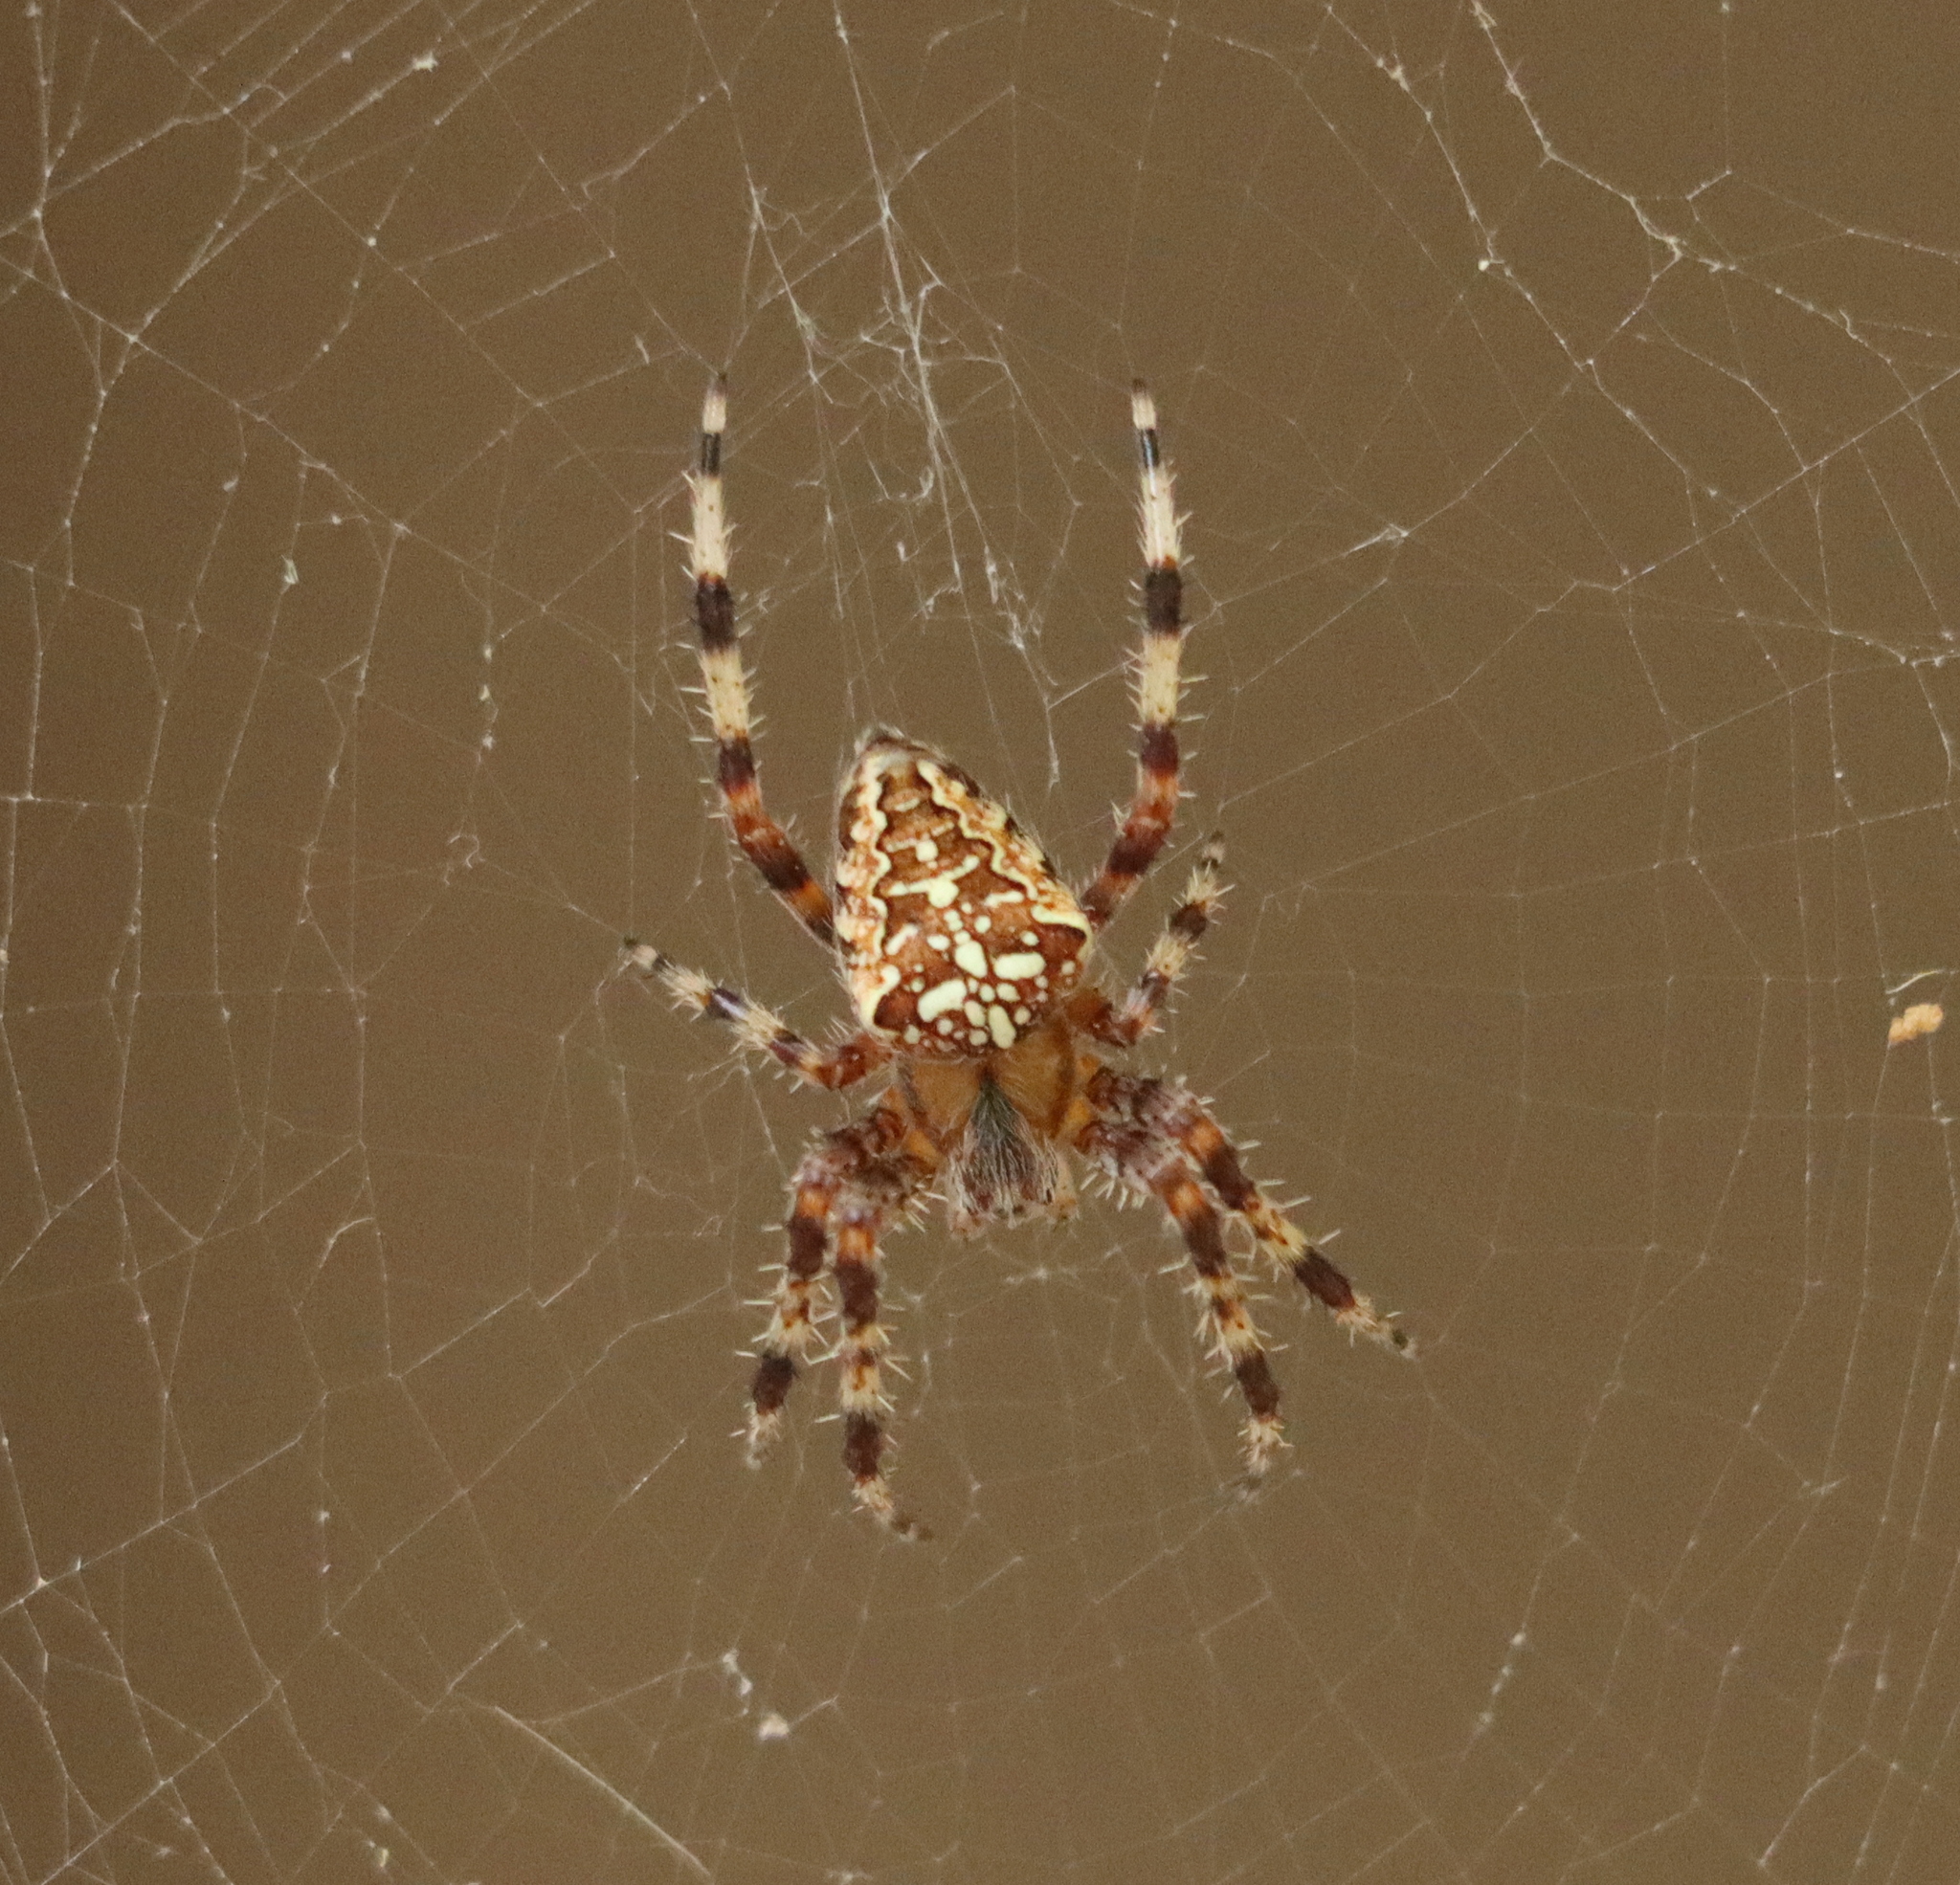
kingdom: Animalia
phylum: Arthropoda
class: Arachnida
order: Araneae
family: Araneidae
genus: Araneus
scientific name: Araneus diadematus
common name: Cross orbweaver
